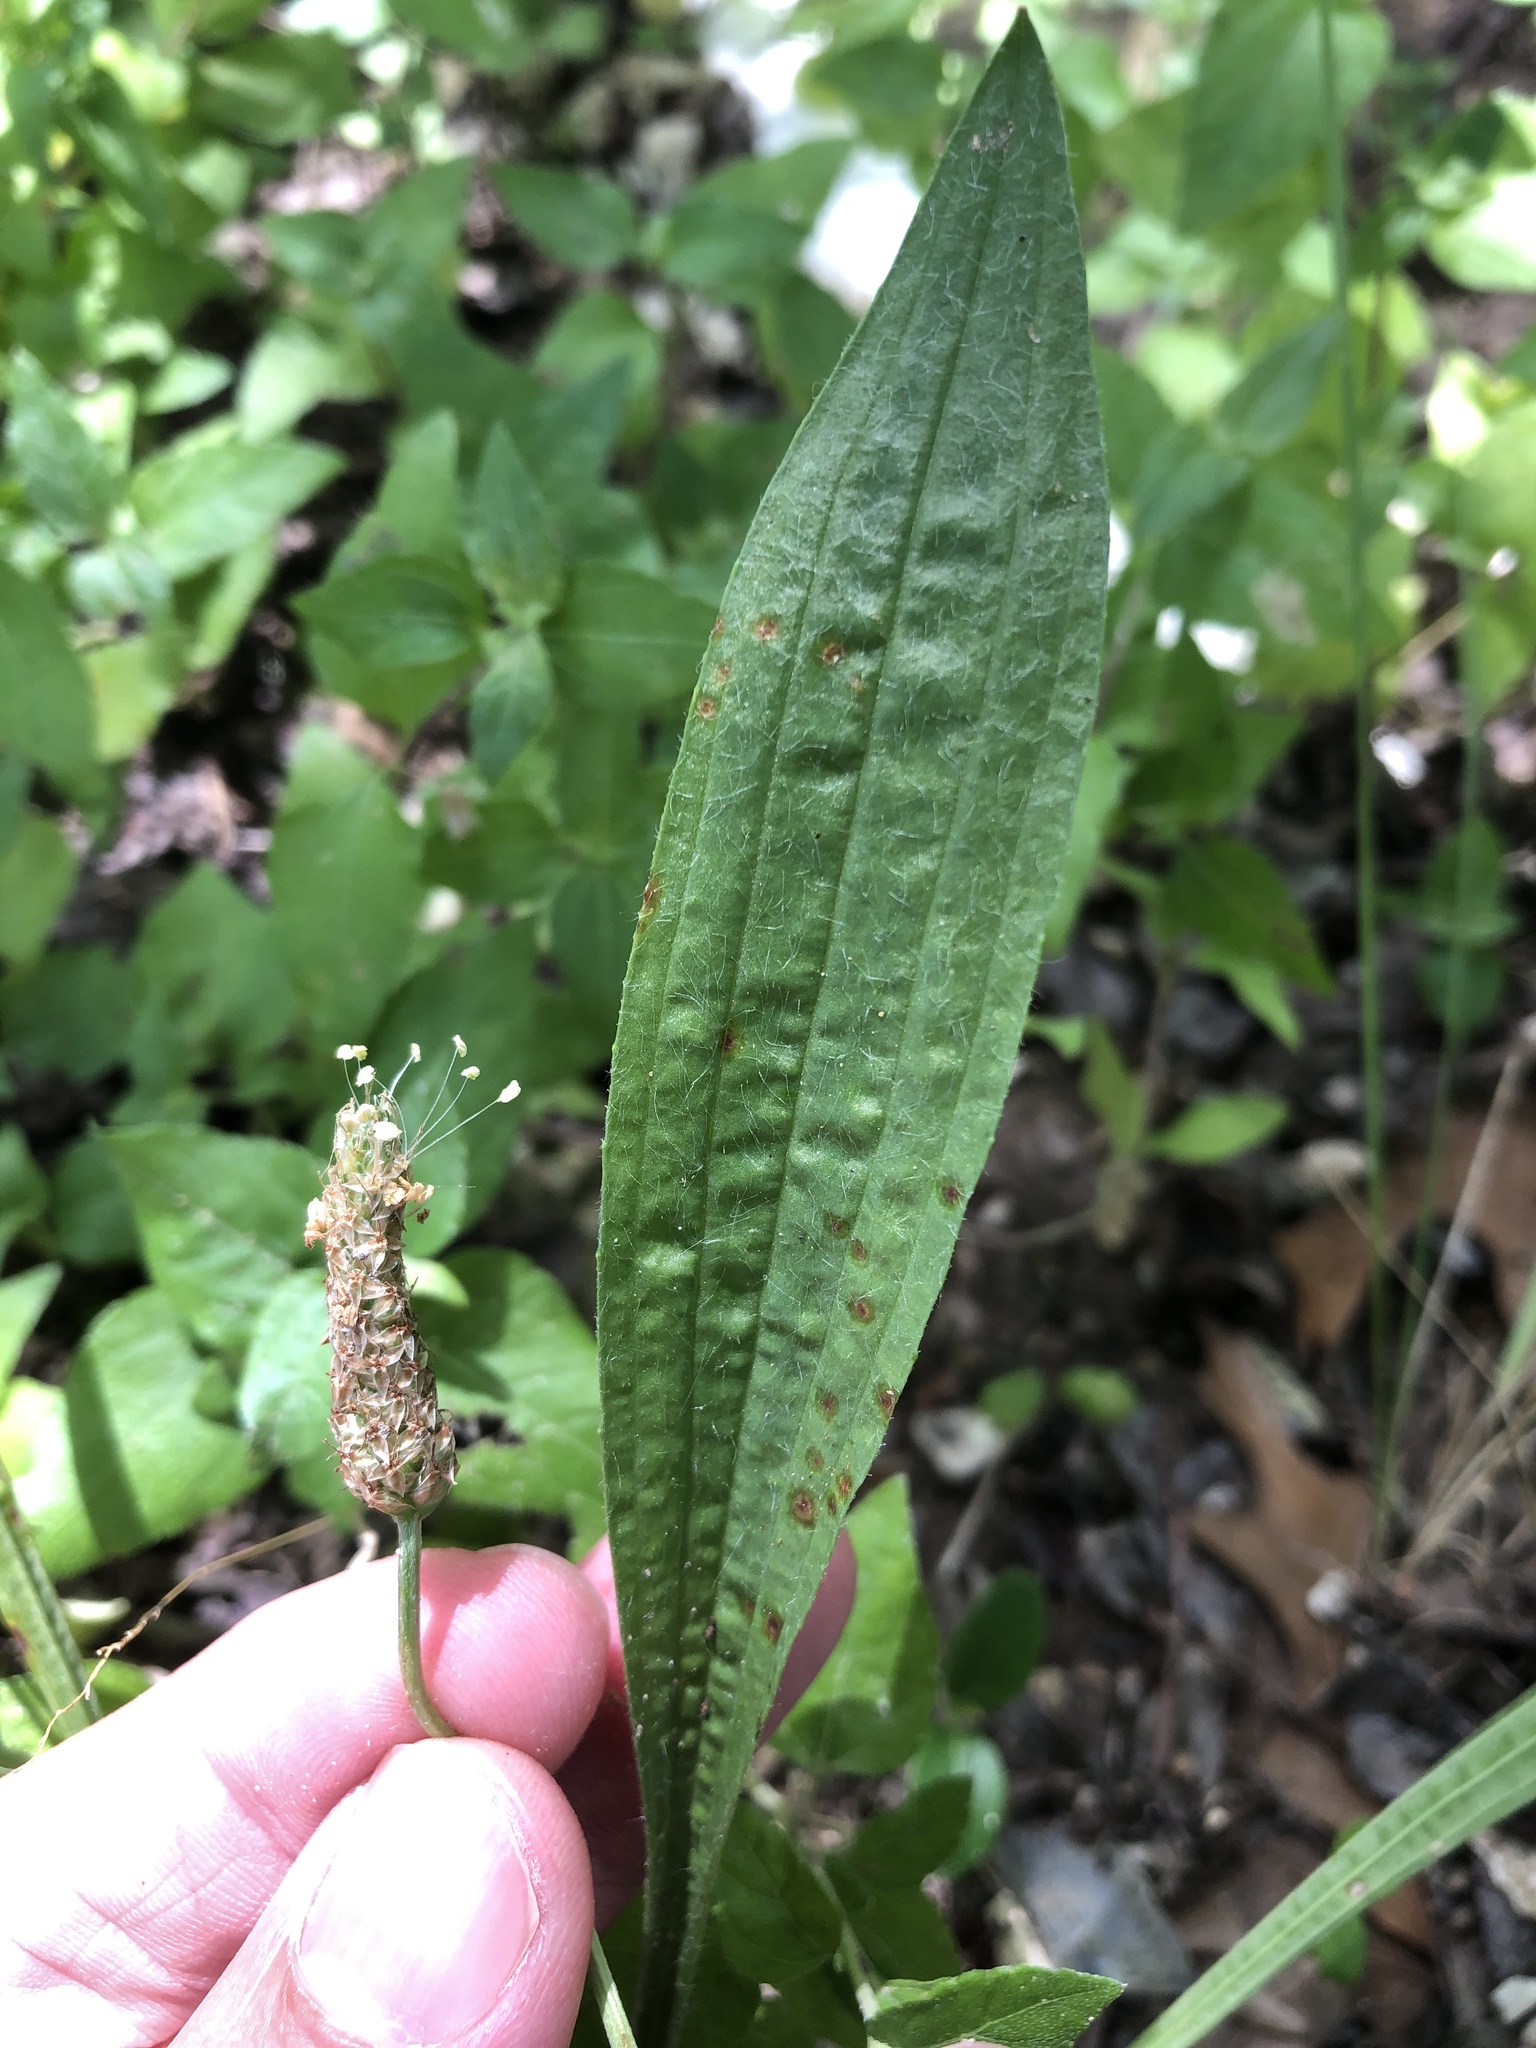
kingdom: Plantae
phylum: Tracheophyta
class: Magnoliopsida
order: Lamiales
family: Plantaginaceae
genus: Plantago
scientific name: Plantago lanceolata
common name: Ribwort plantain
